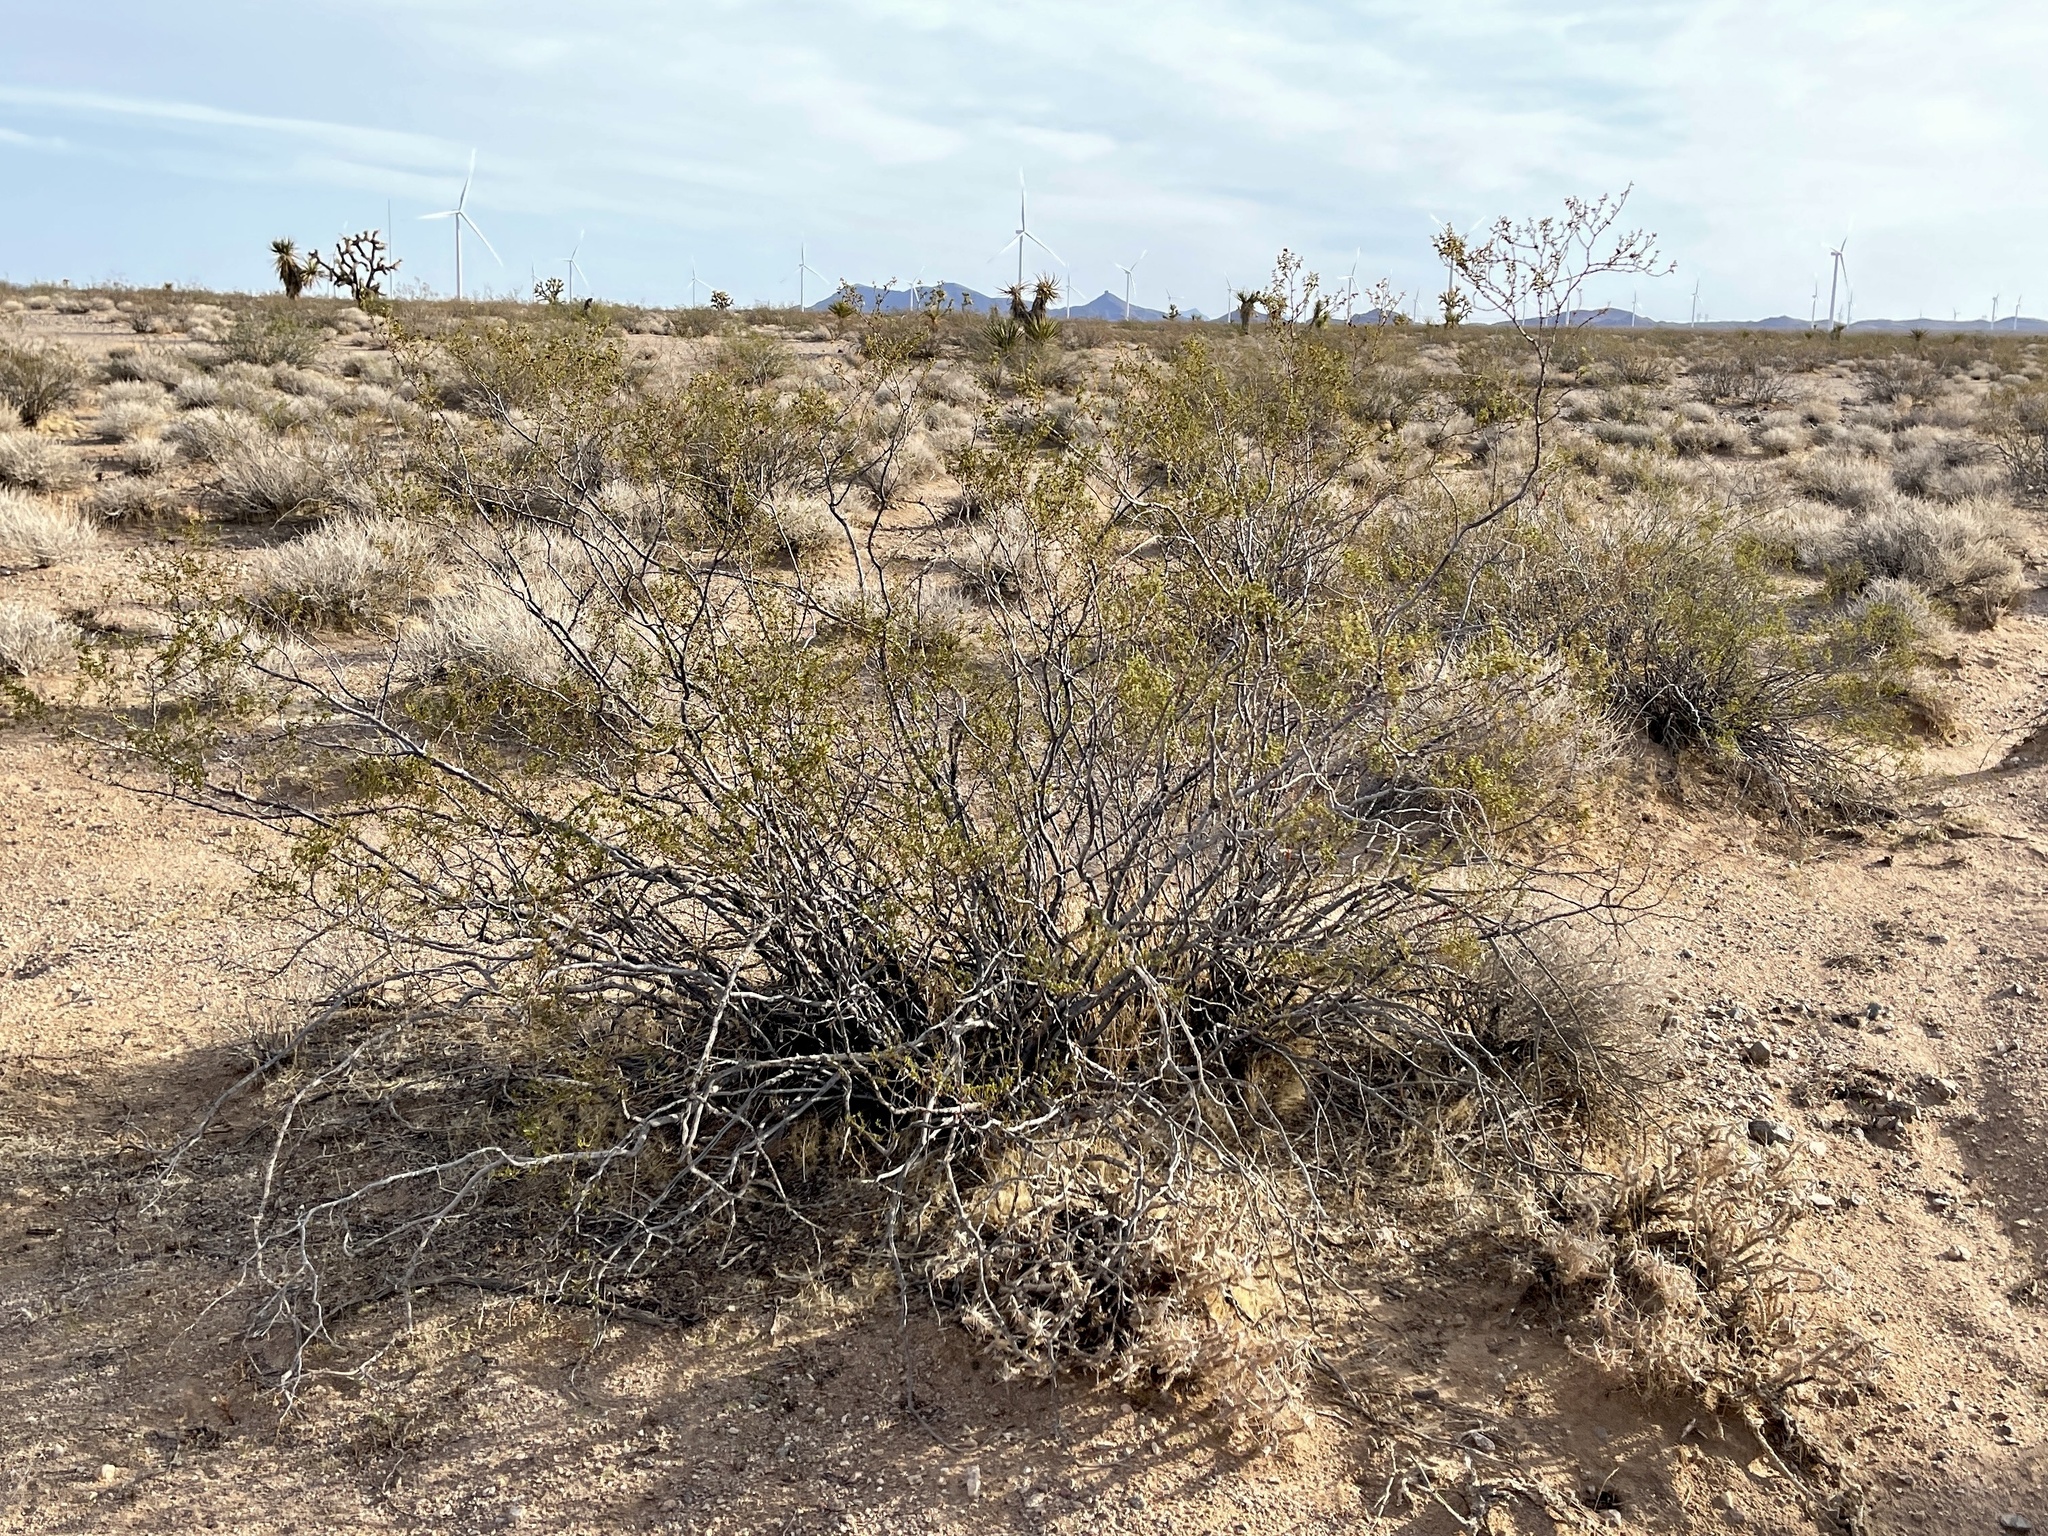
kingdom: Plantae
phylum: Tracheophyta
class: Magnoliopsida
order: Zygophyllales
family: Zygophyllaceae
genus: Larrea
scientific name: Larrea tridentata
